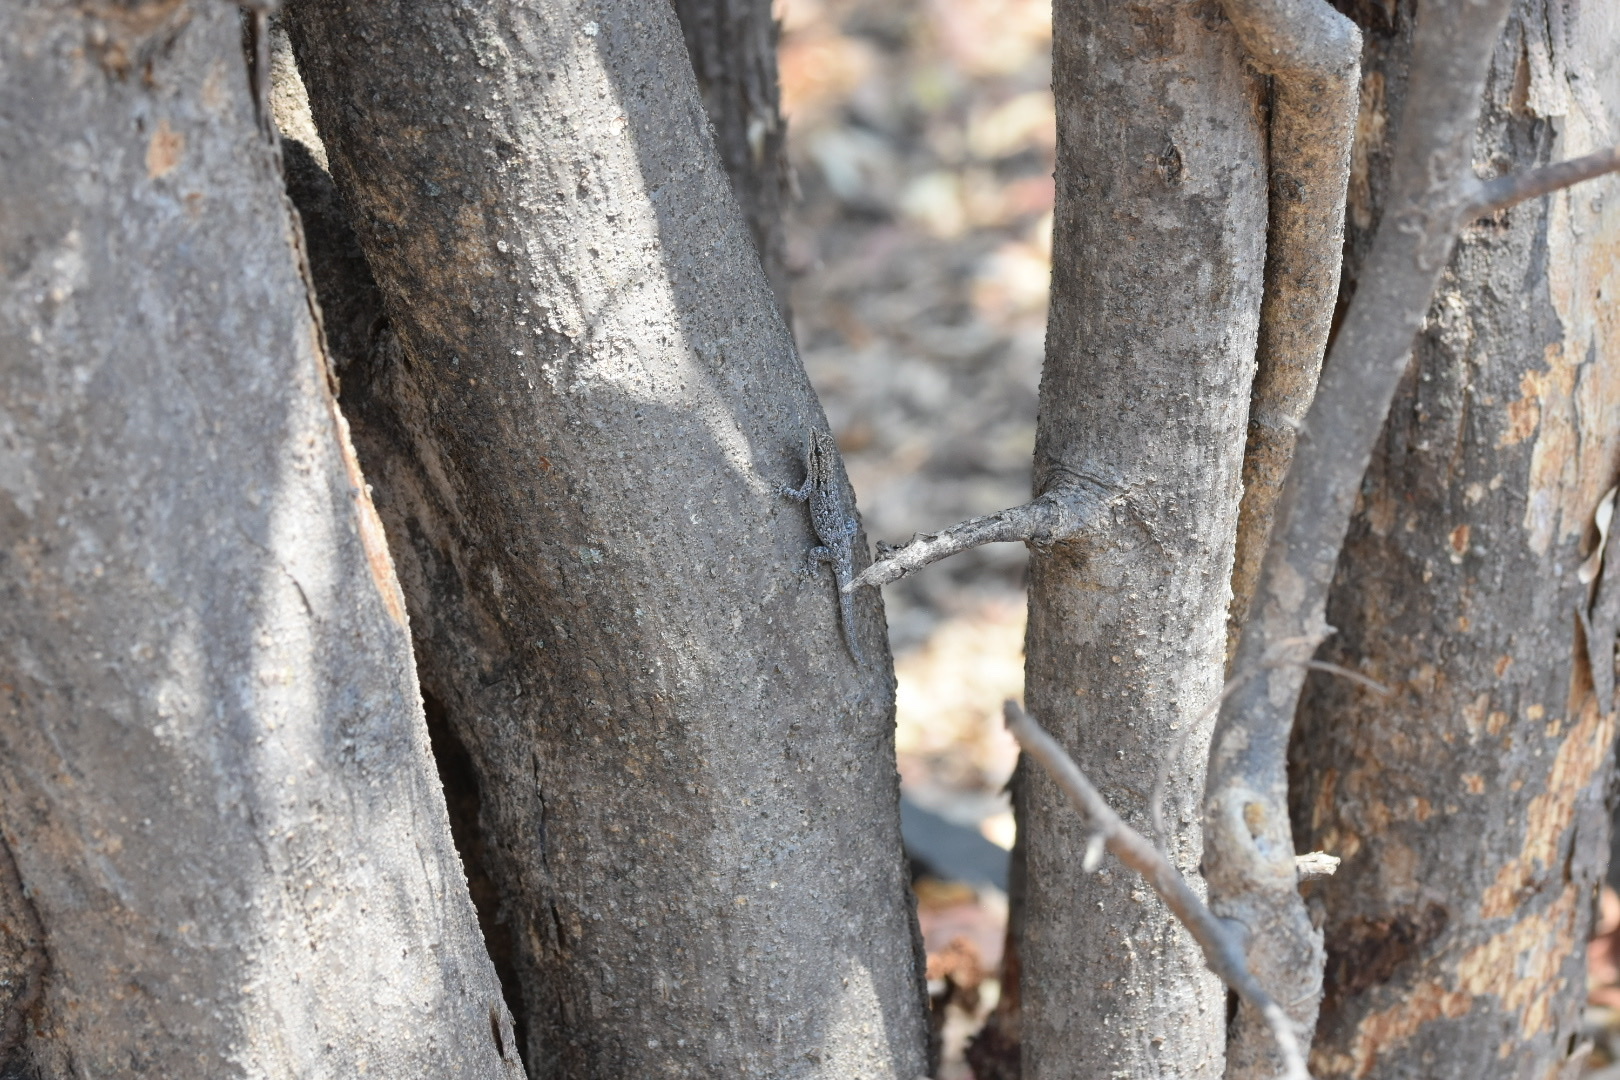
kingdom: Animalia
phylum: Chordata
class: Squamata
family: Gekkonidae
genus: Lygodactylus
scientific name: Lygodactylus capensis
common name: Cape dwarf gecko
